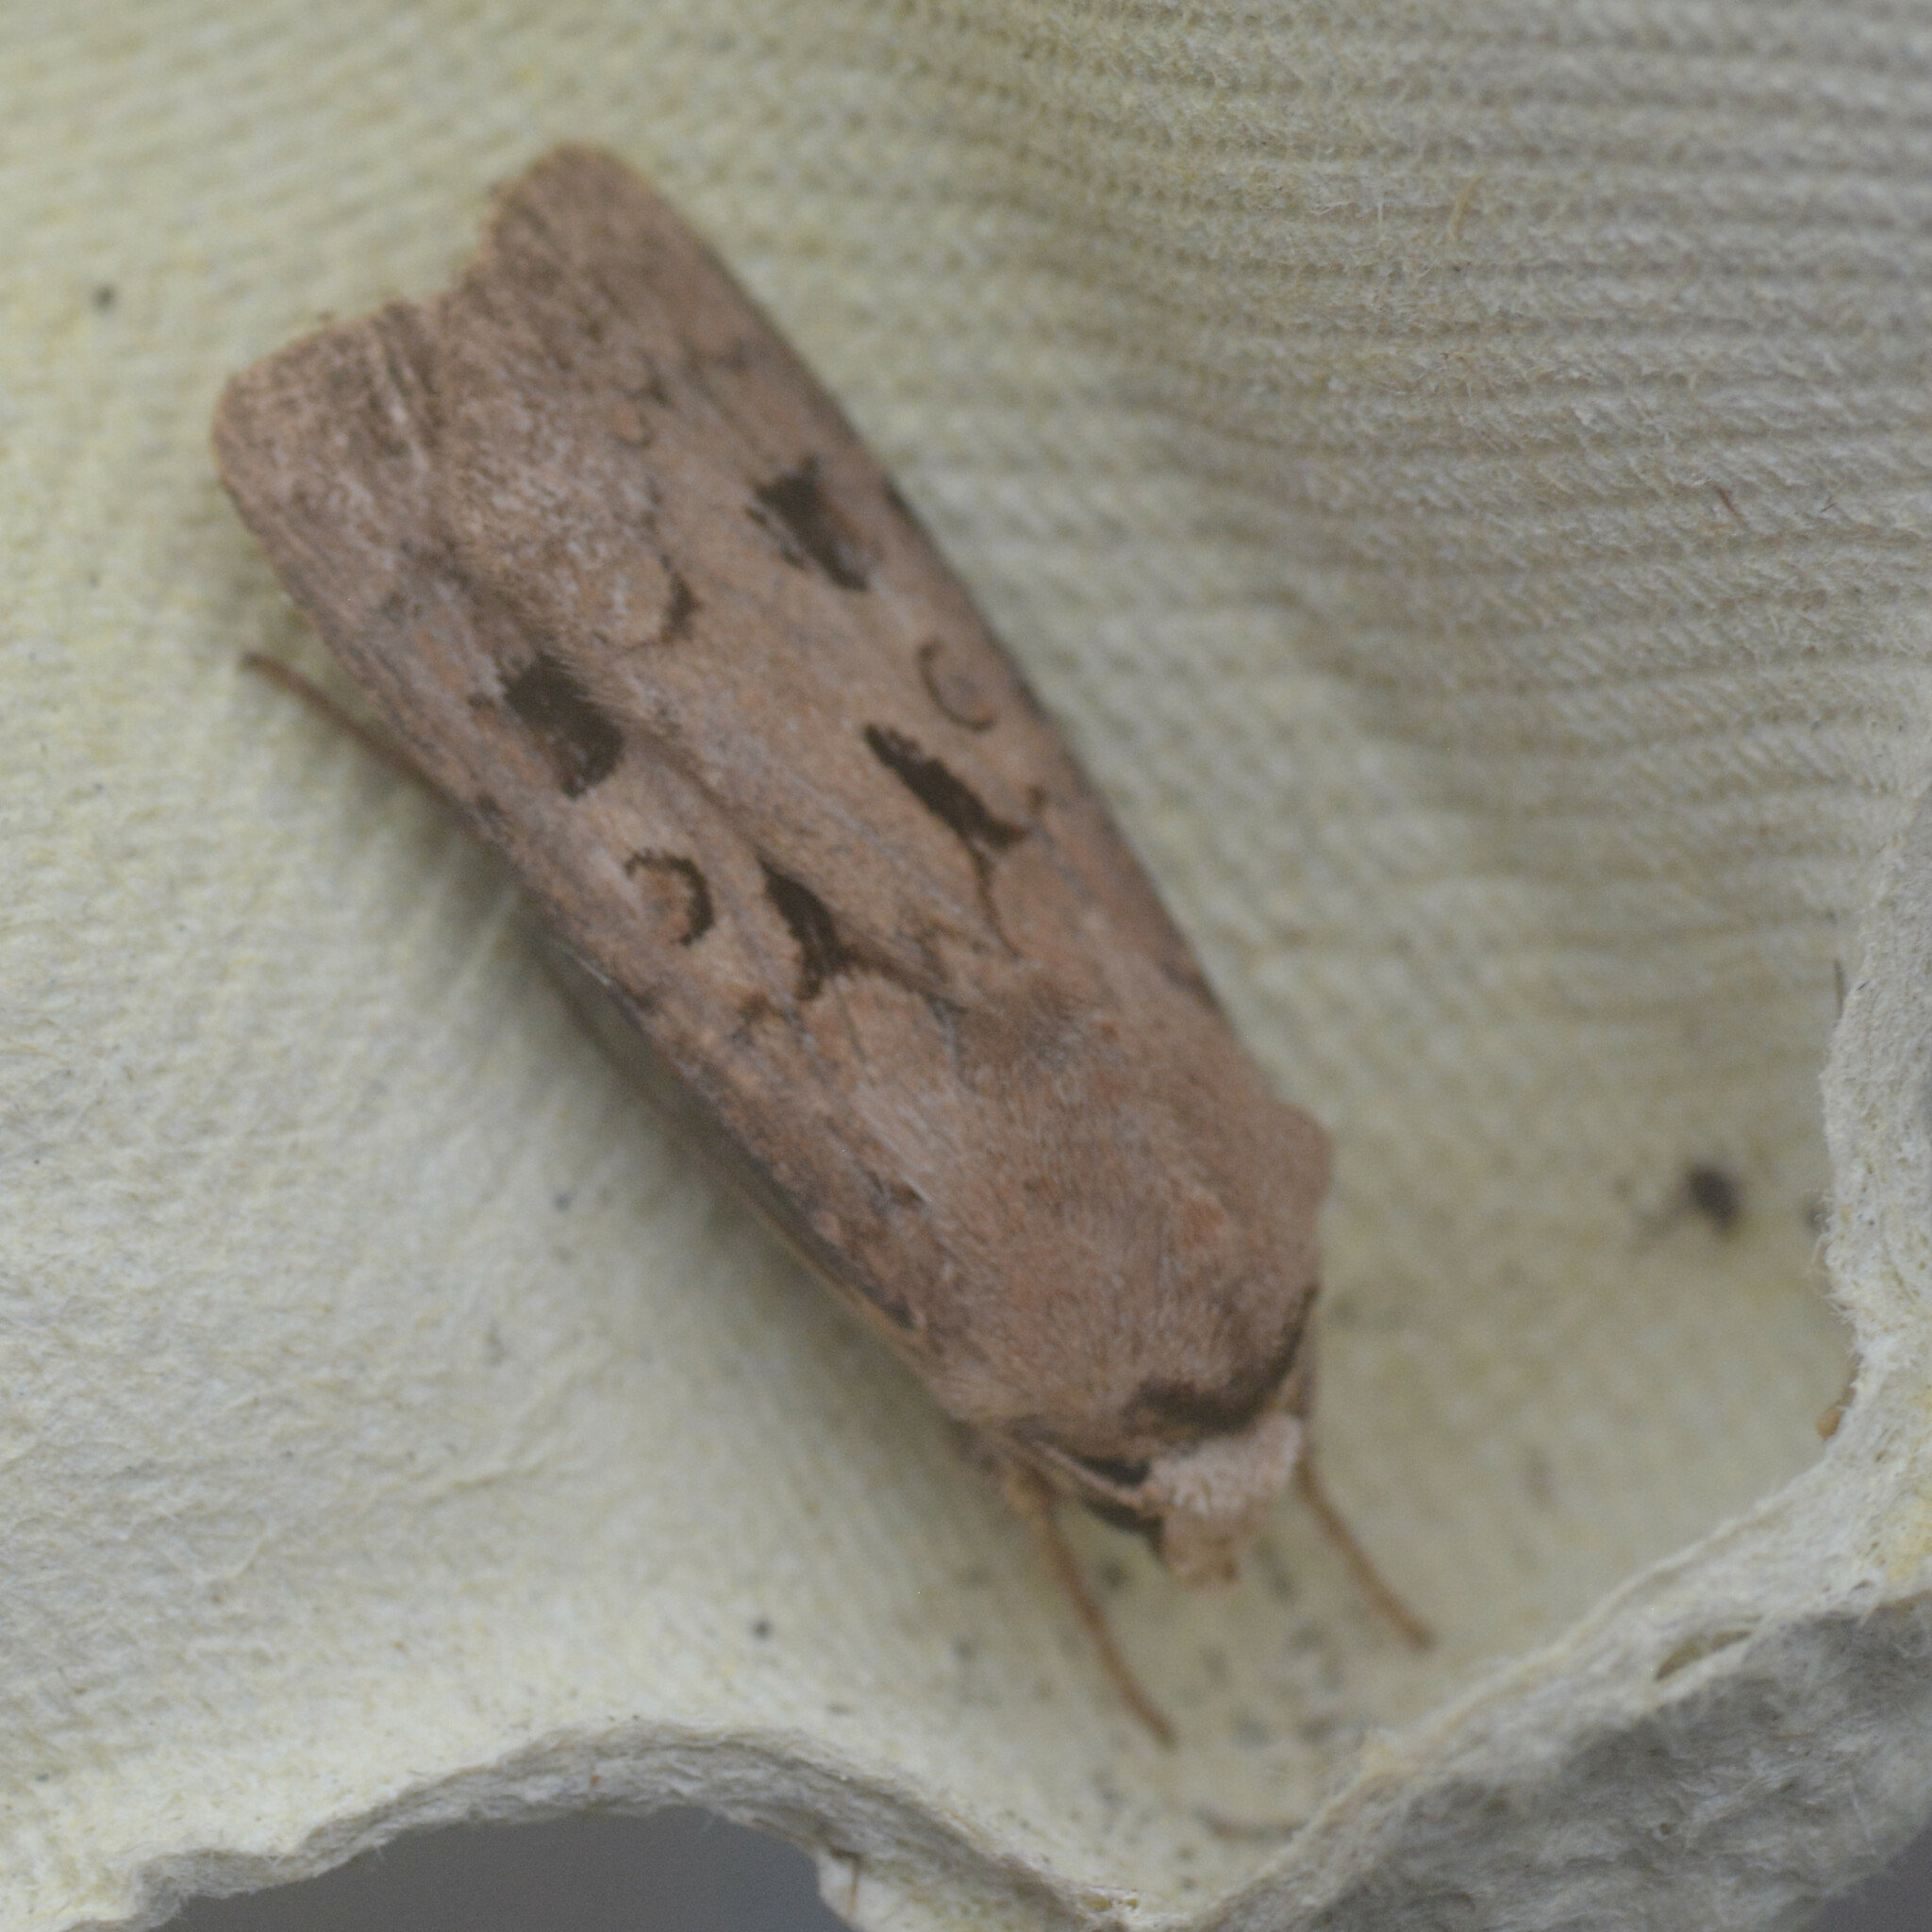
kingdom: Animalia
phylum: Arthropoda
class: Insecta
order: Lepidoptera
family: Noctuidae
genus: Agrotis
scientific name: Agrotis exclamationis
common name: Heart and dart
